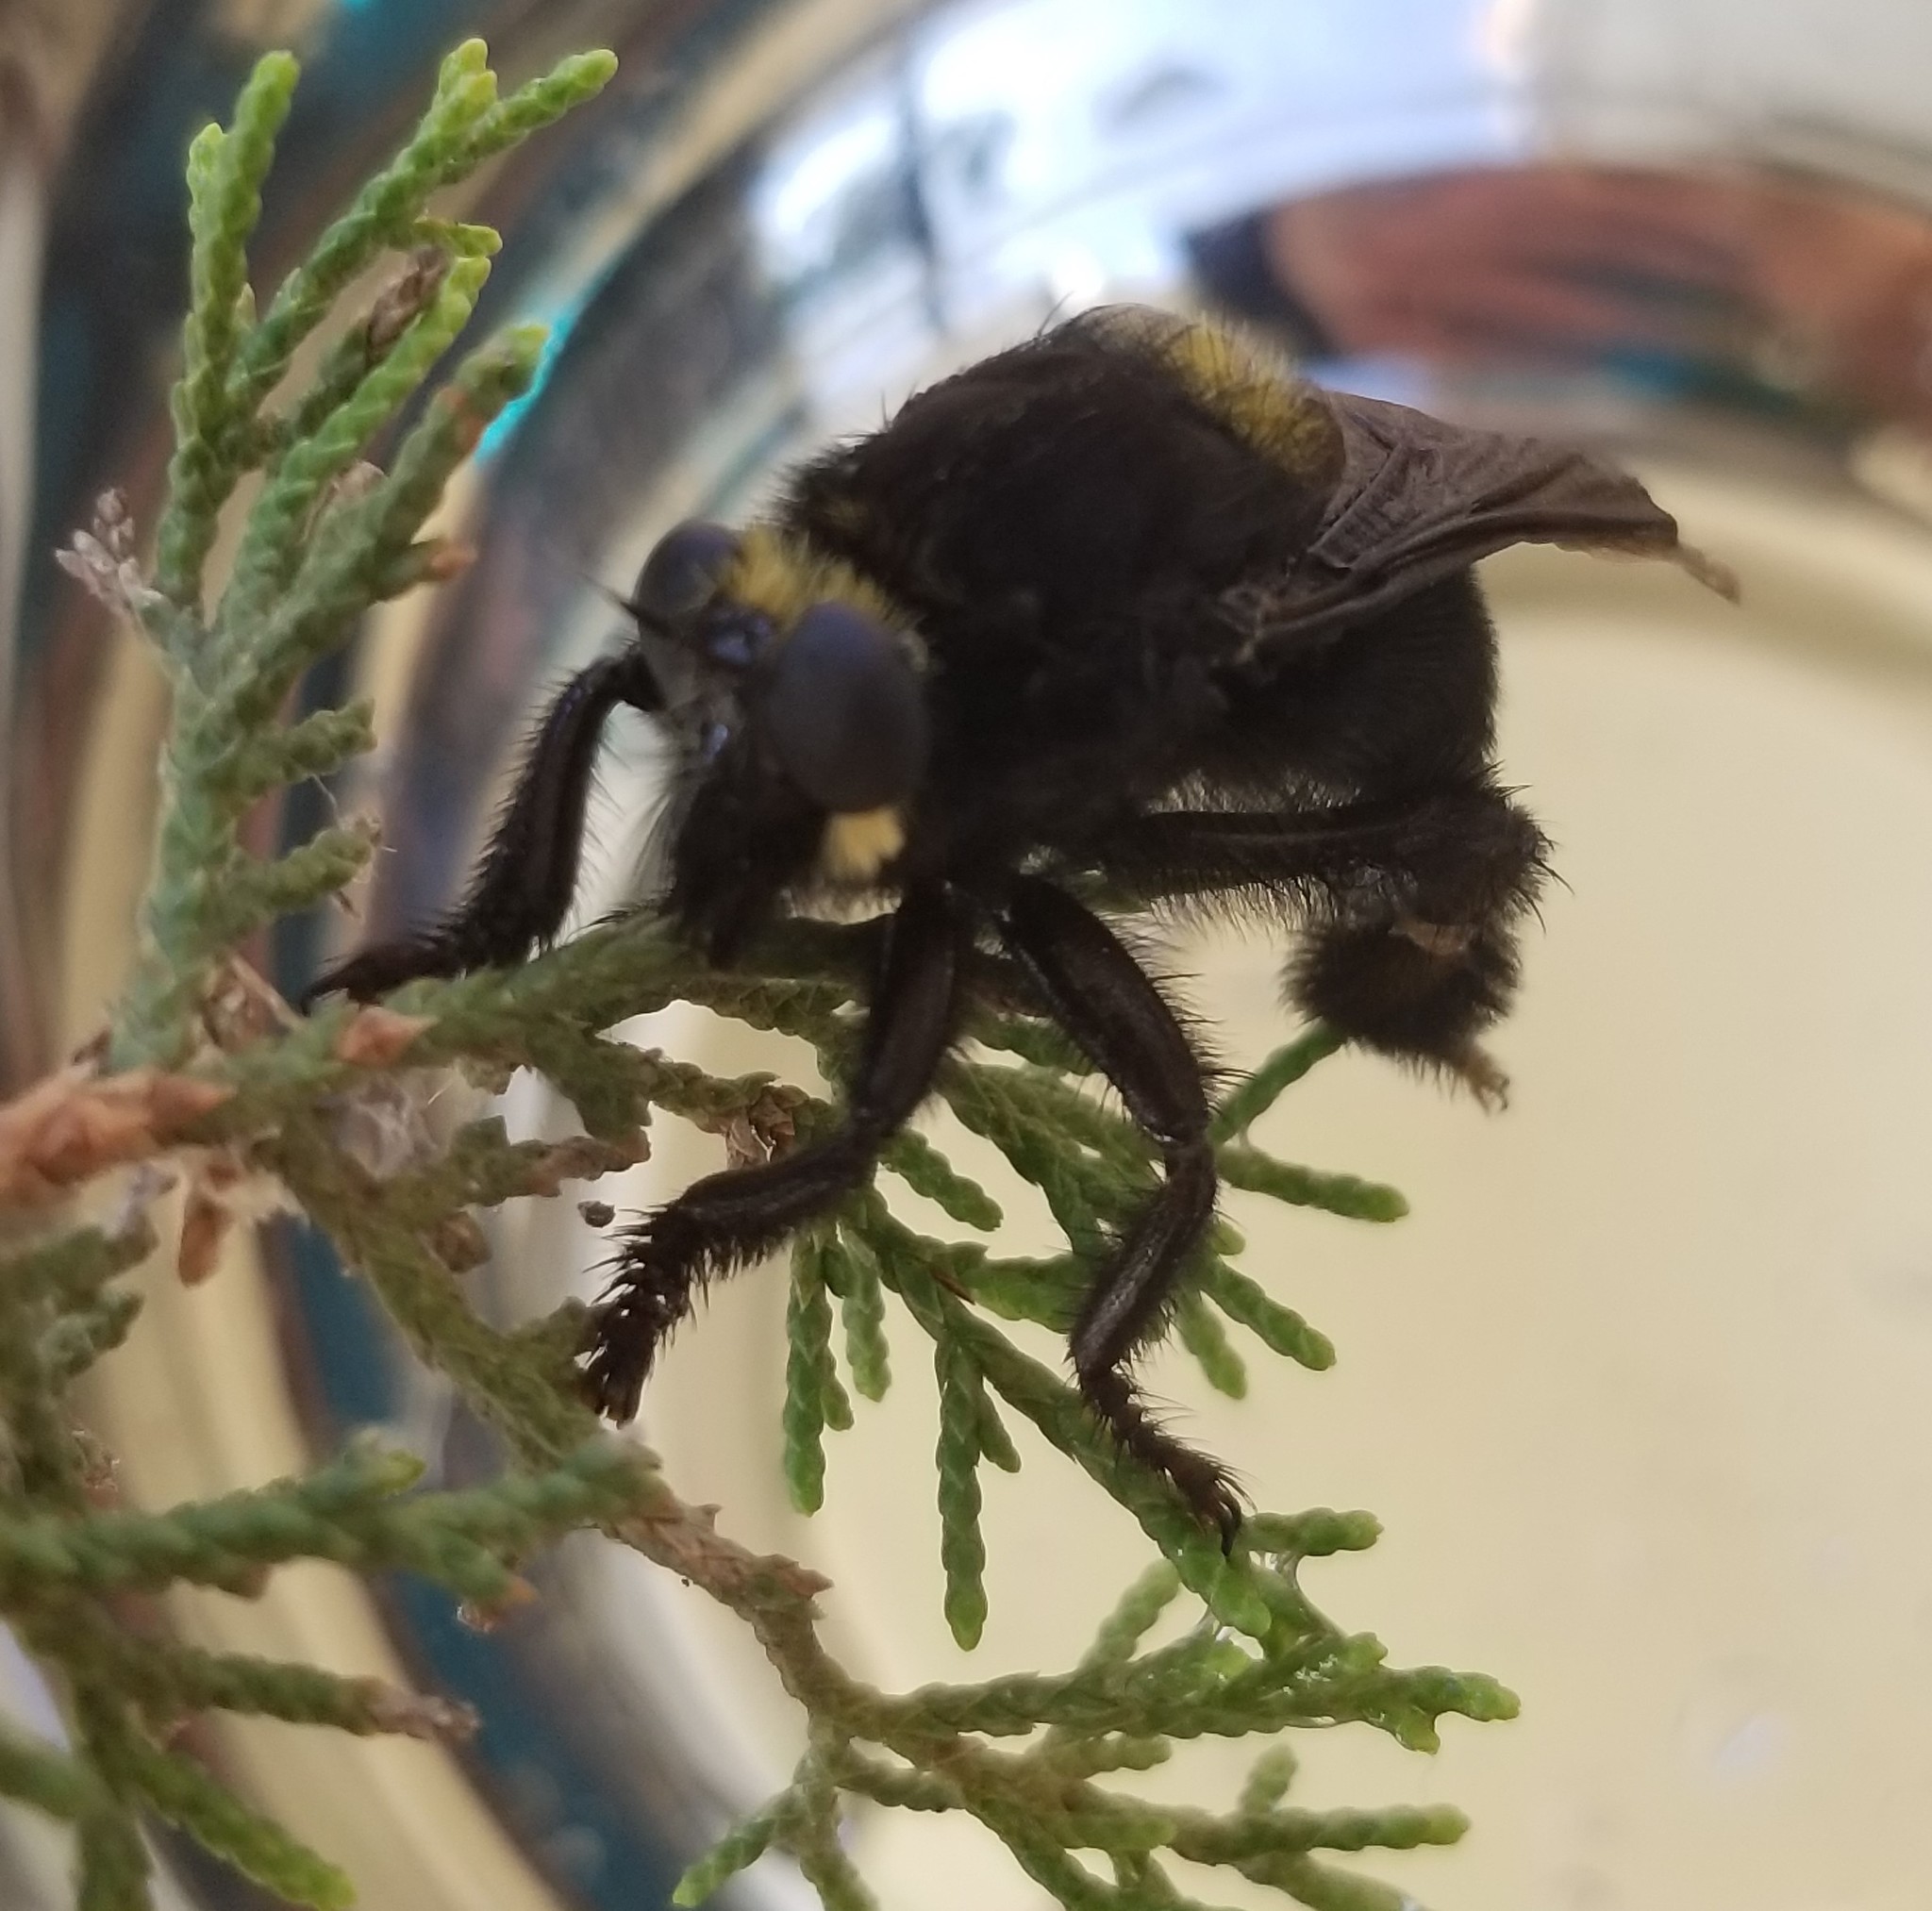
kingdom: Animalia
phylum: Arthropoda
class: Insecta
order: Diptera
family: Asilidae
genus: Mallophora
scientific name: Mallophora leschenaultii
